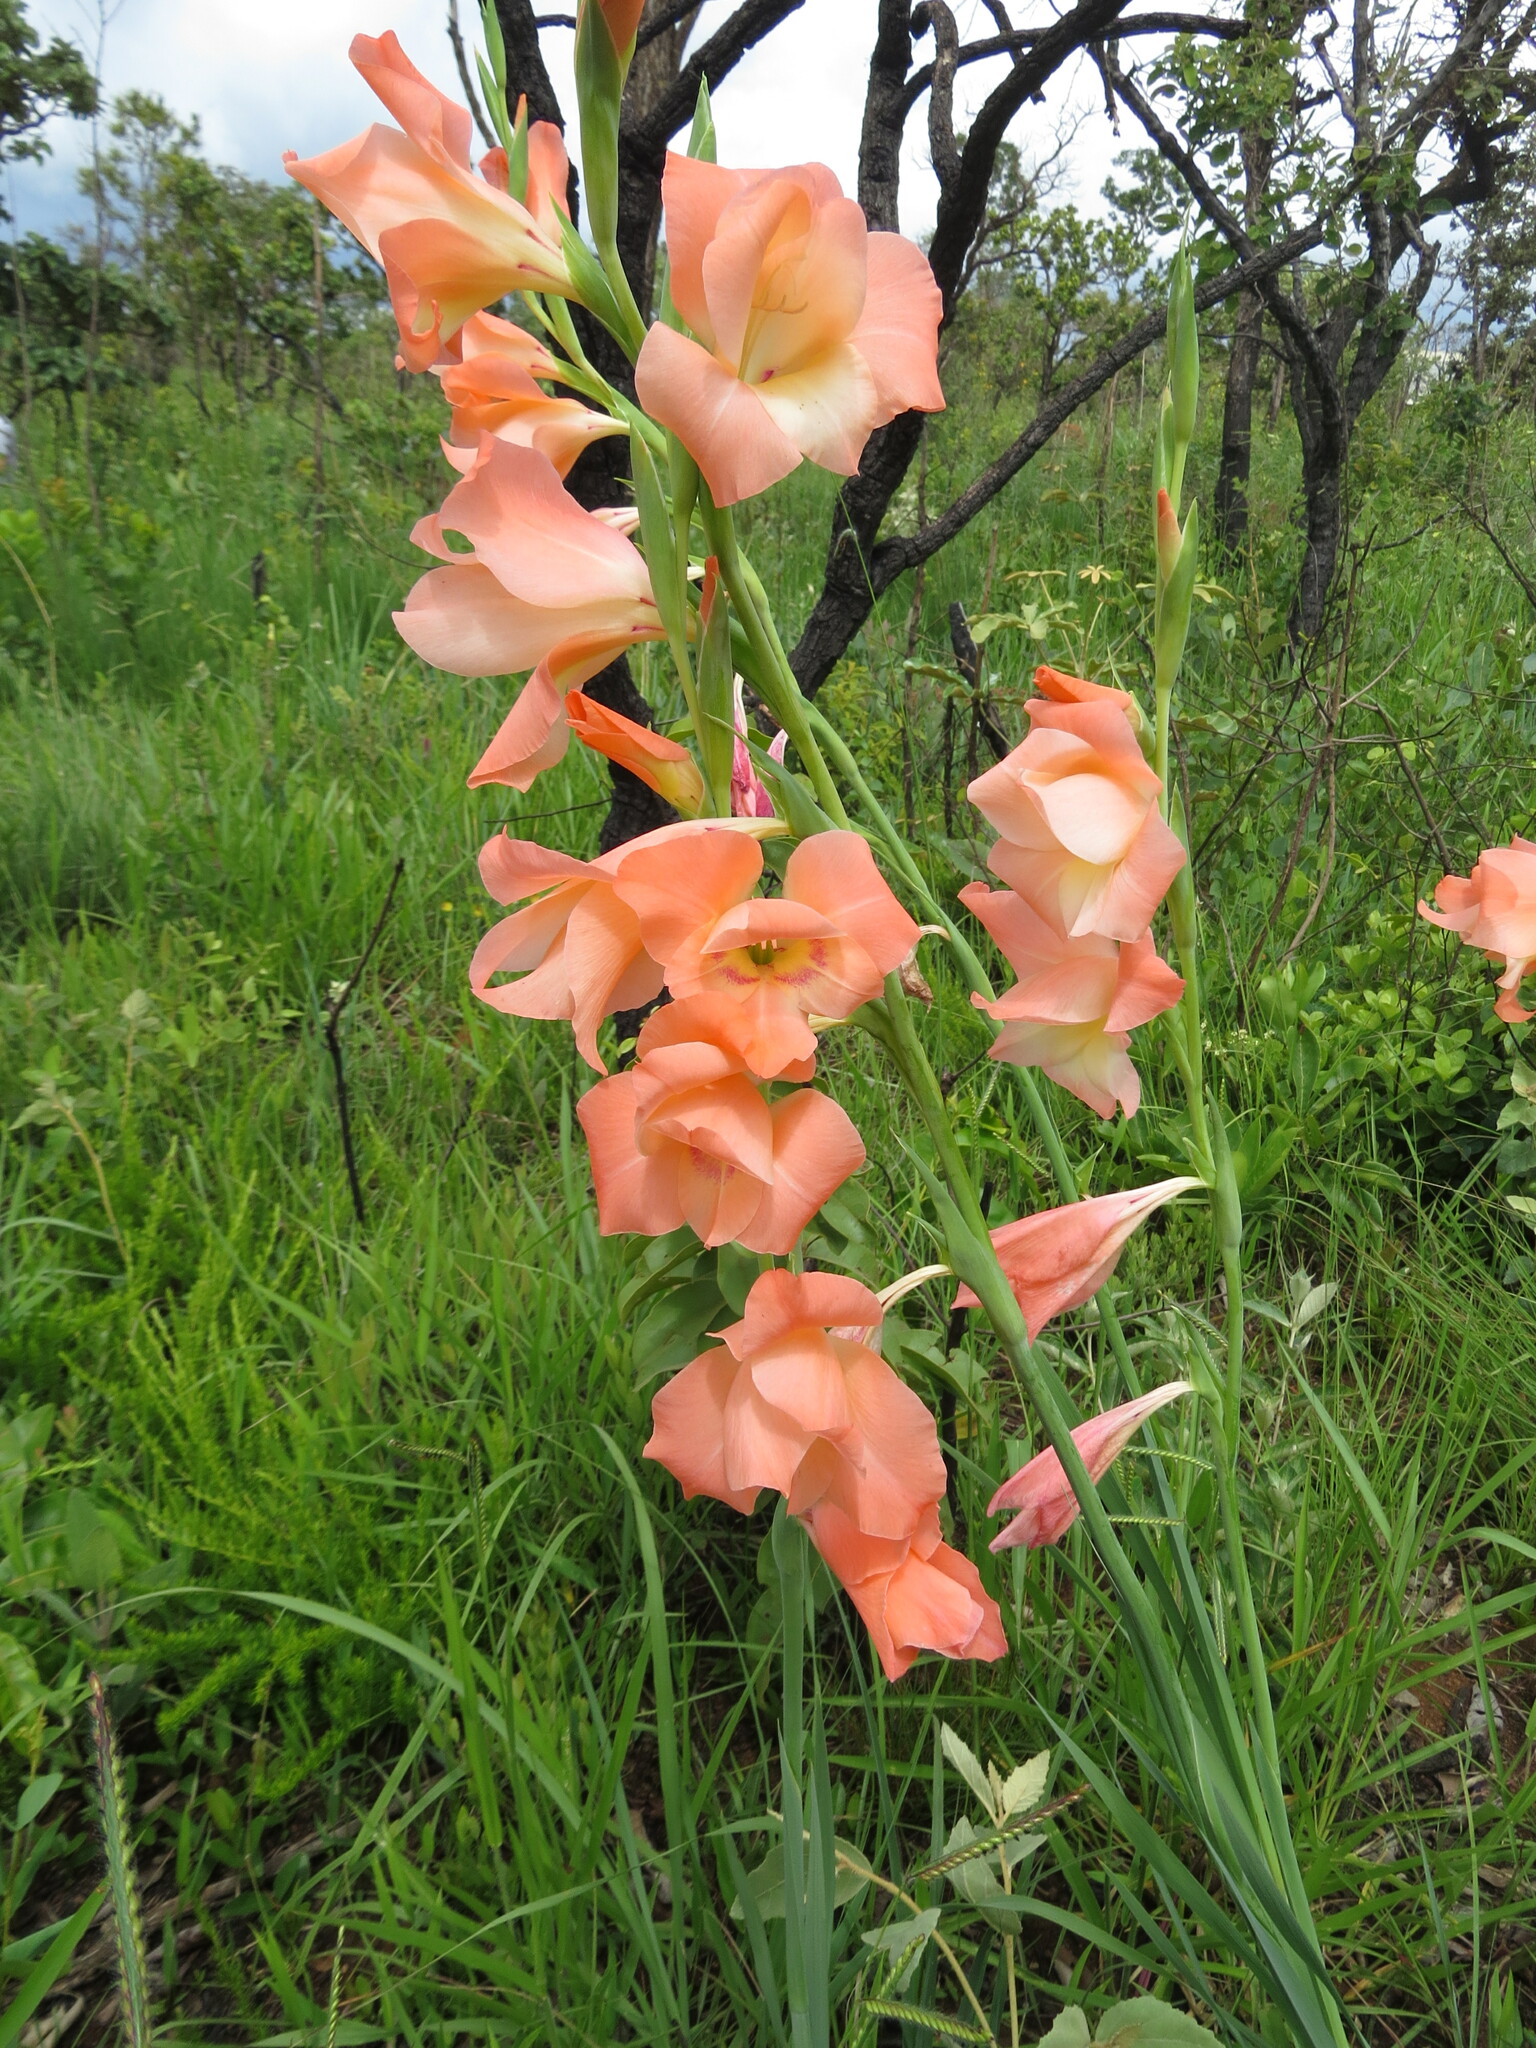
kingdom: Plantae
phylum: Tracheophyta
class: Liliopsida
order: Asparagales
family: Iridaceae
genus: Gladiolus
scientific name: Gladiolus hortulanus
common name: Large-flowered gladiolus
